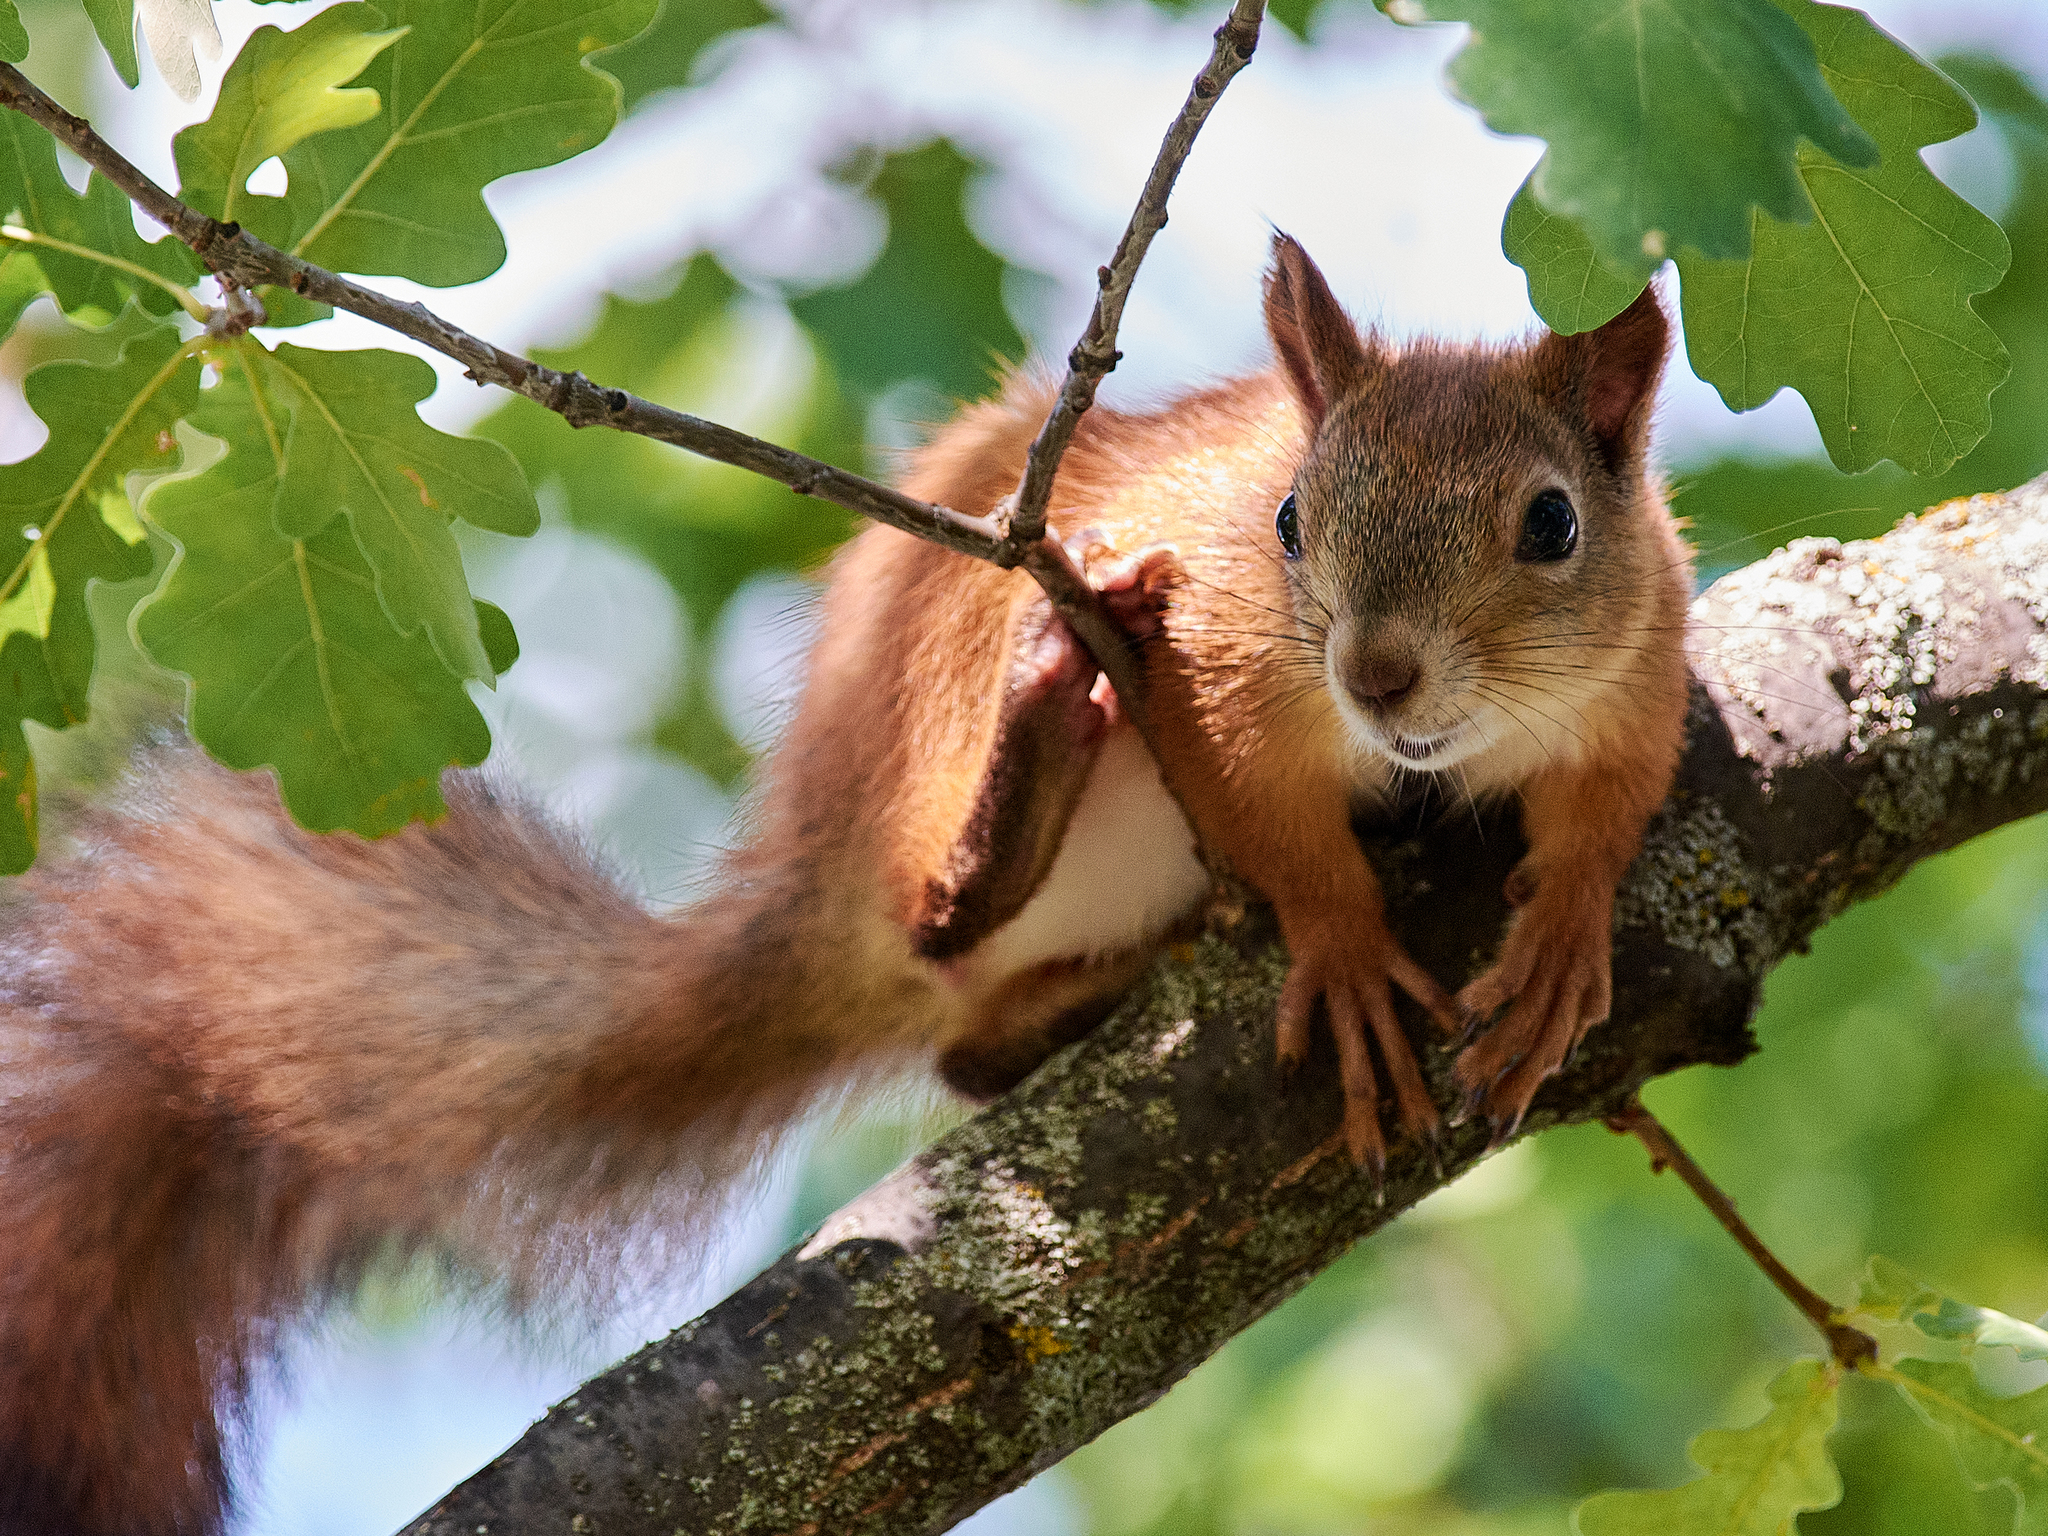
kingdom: Animalia
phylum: Chordata
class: Mammalia
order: Rodentia
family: Sciuridae
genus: Sciurus
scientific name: Sciurus vulgaris
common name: Eurasian red squirrel
